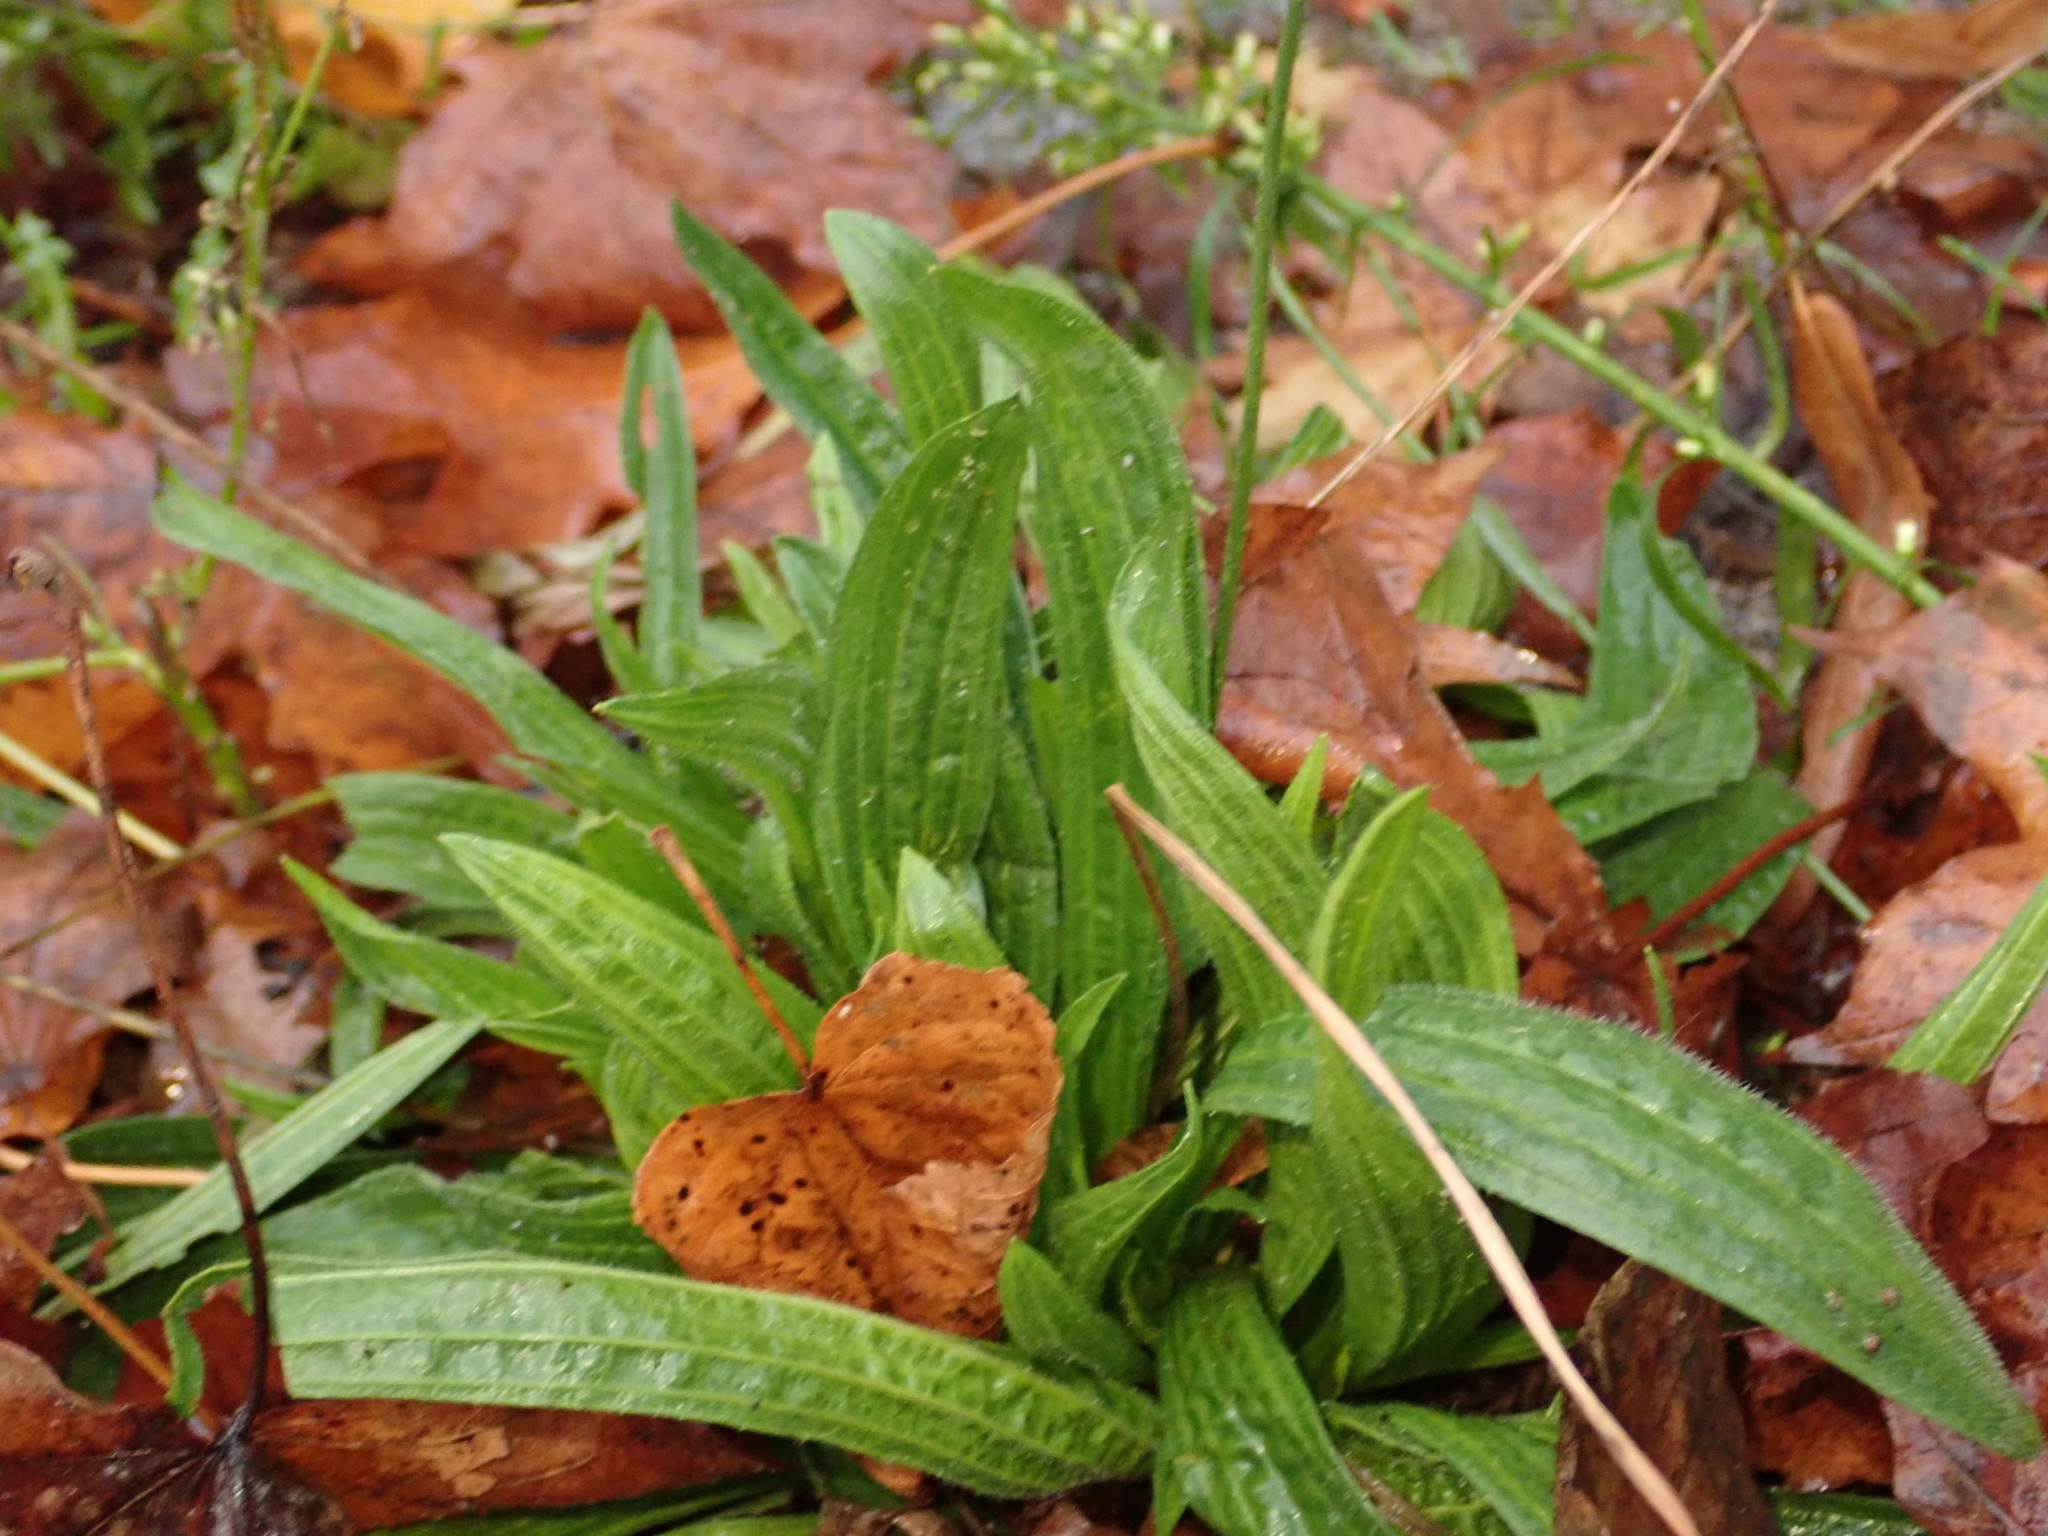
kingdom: Plantae
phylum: Tracheophyta
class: Magnoliopsida
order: Lamiales
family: Plantaginaceae
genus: Plantago
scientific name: Plantago lanceolata
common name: Ribwort plantain
